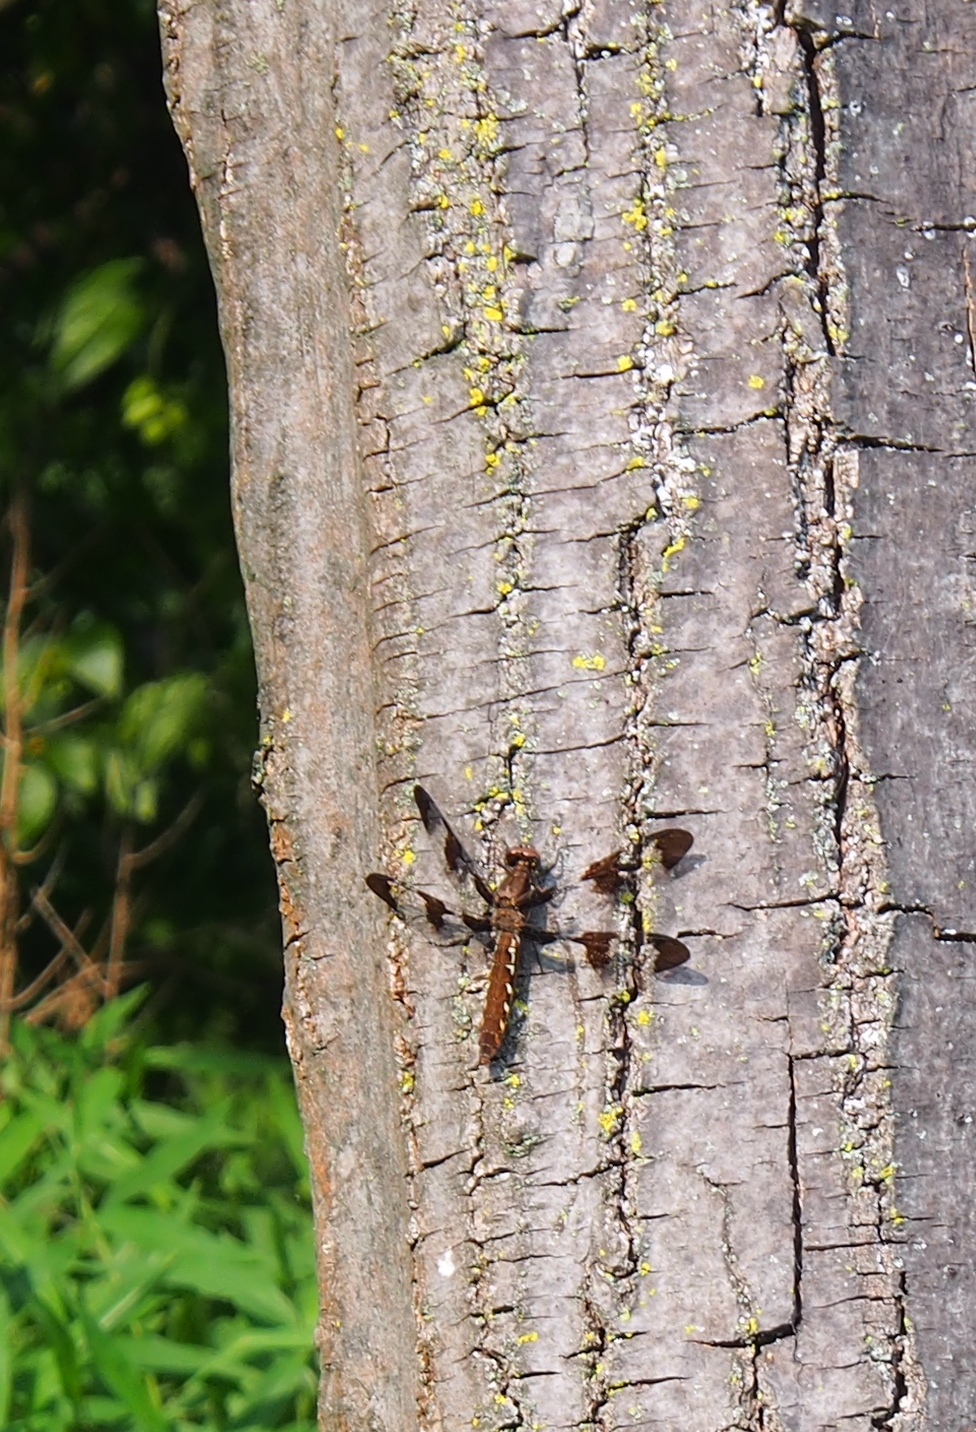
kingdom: Animalia
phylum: Arthropoda
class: Insecta
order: Odonata
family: Libellulidae
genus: Plathemis
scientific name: Plathemis lydia
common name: Common whitetail
